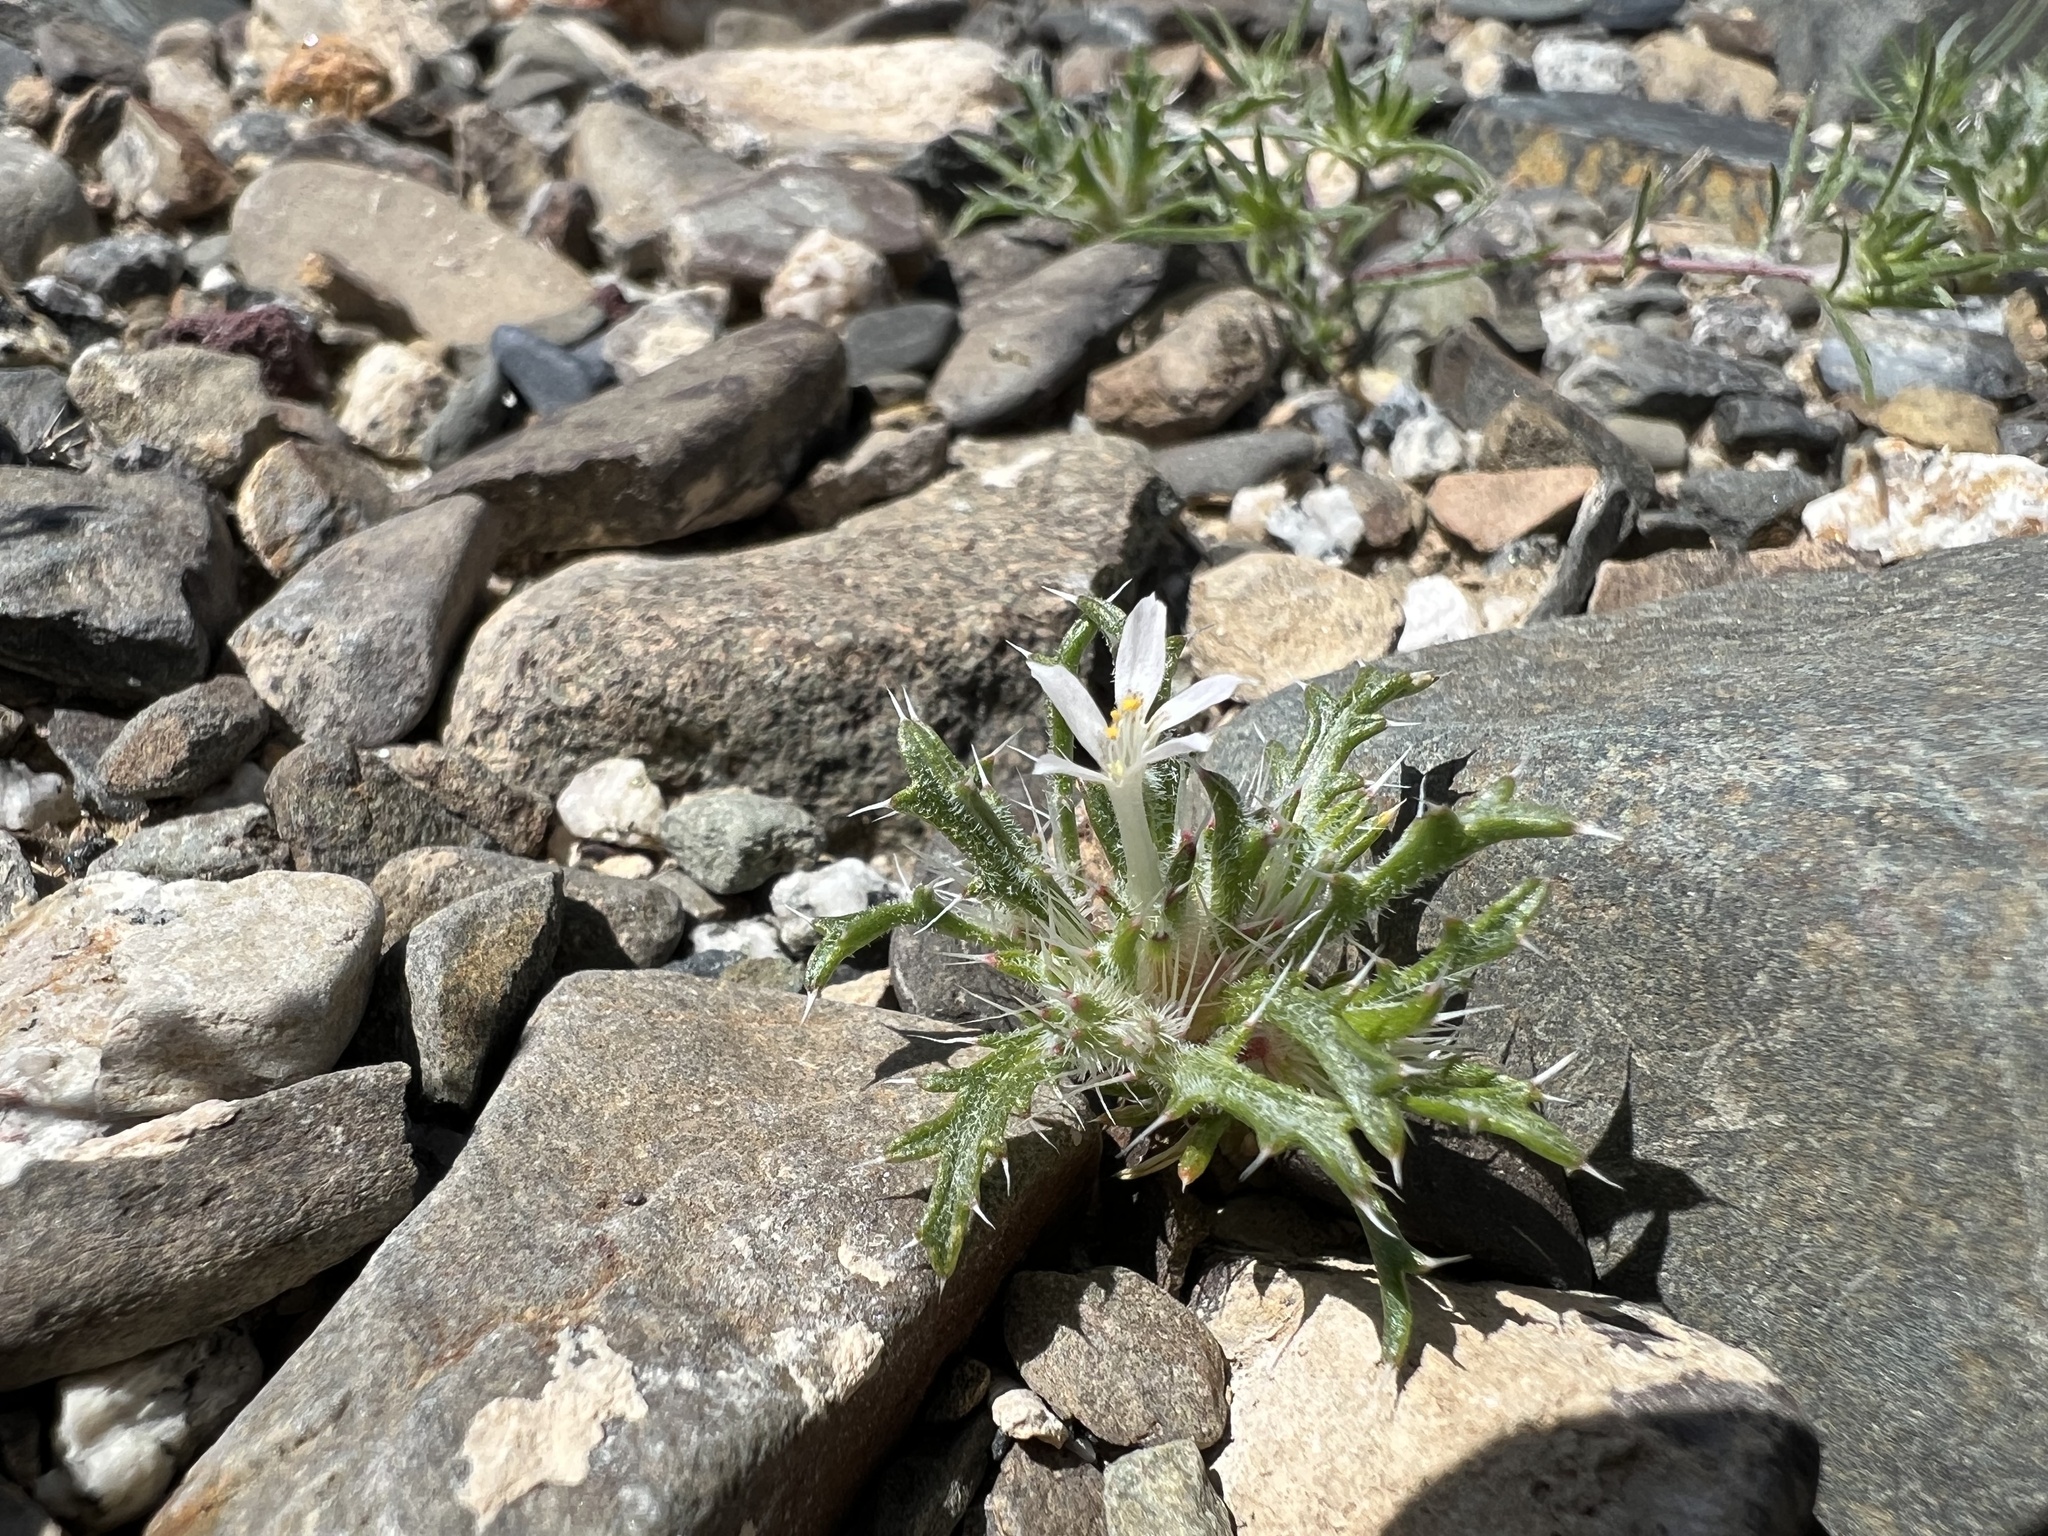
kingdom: Plantae
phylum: Tracheophyta
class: Magnoliopsida
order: Ericales
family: Polemoniaceae
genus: Loeseliastrum
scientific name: Loeseliastrum schottii
